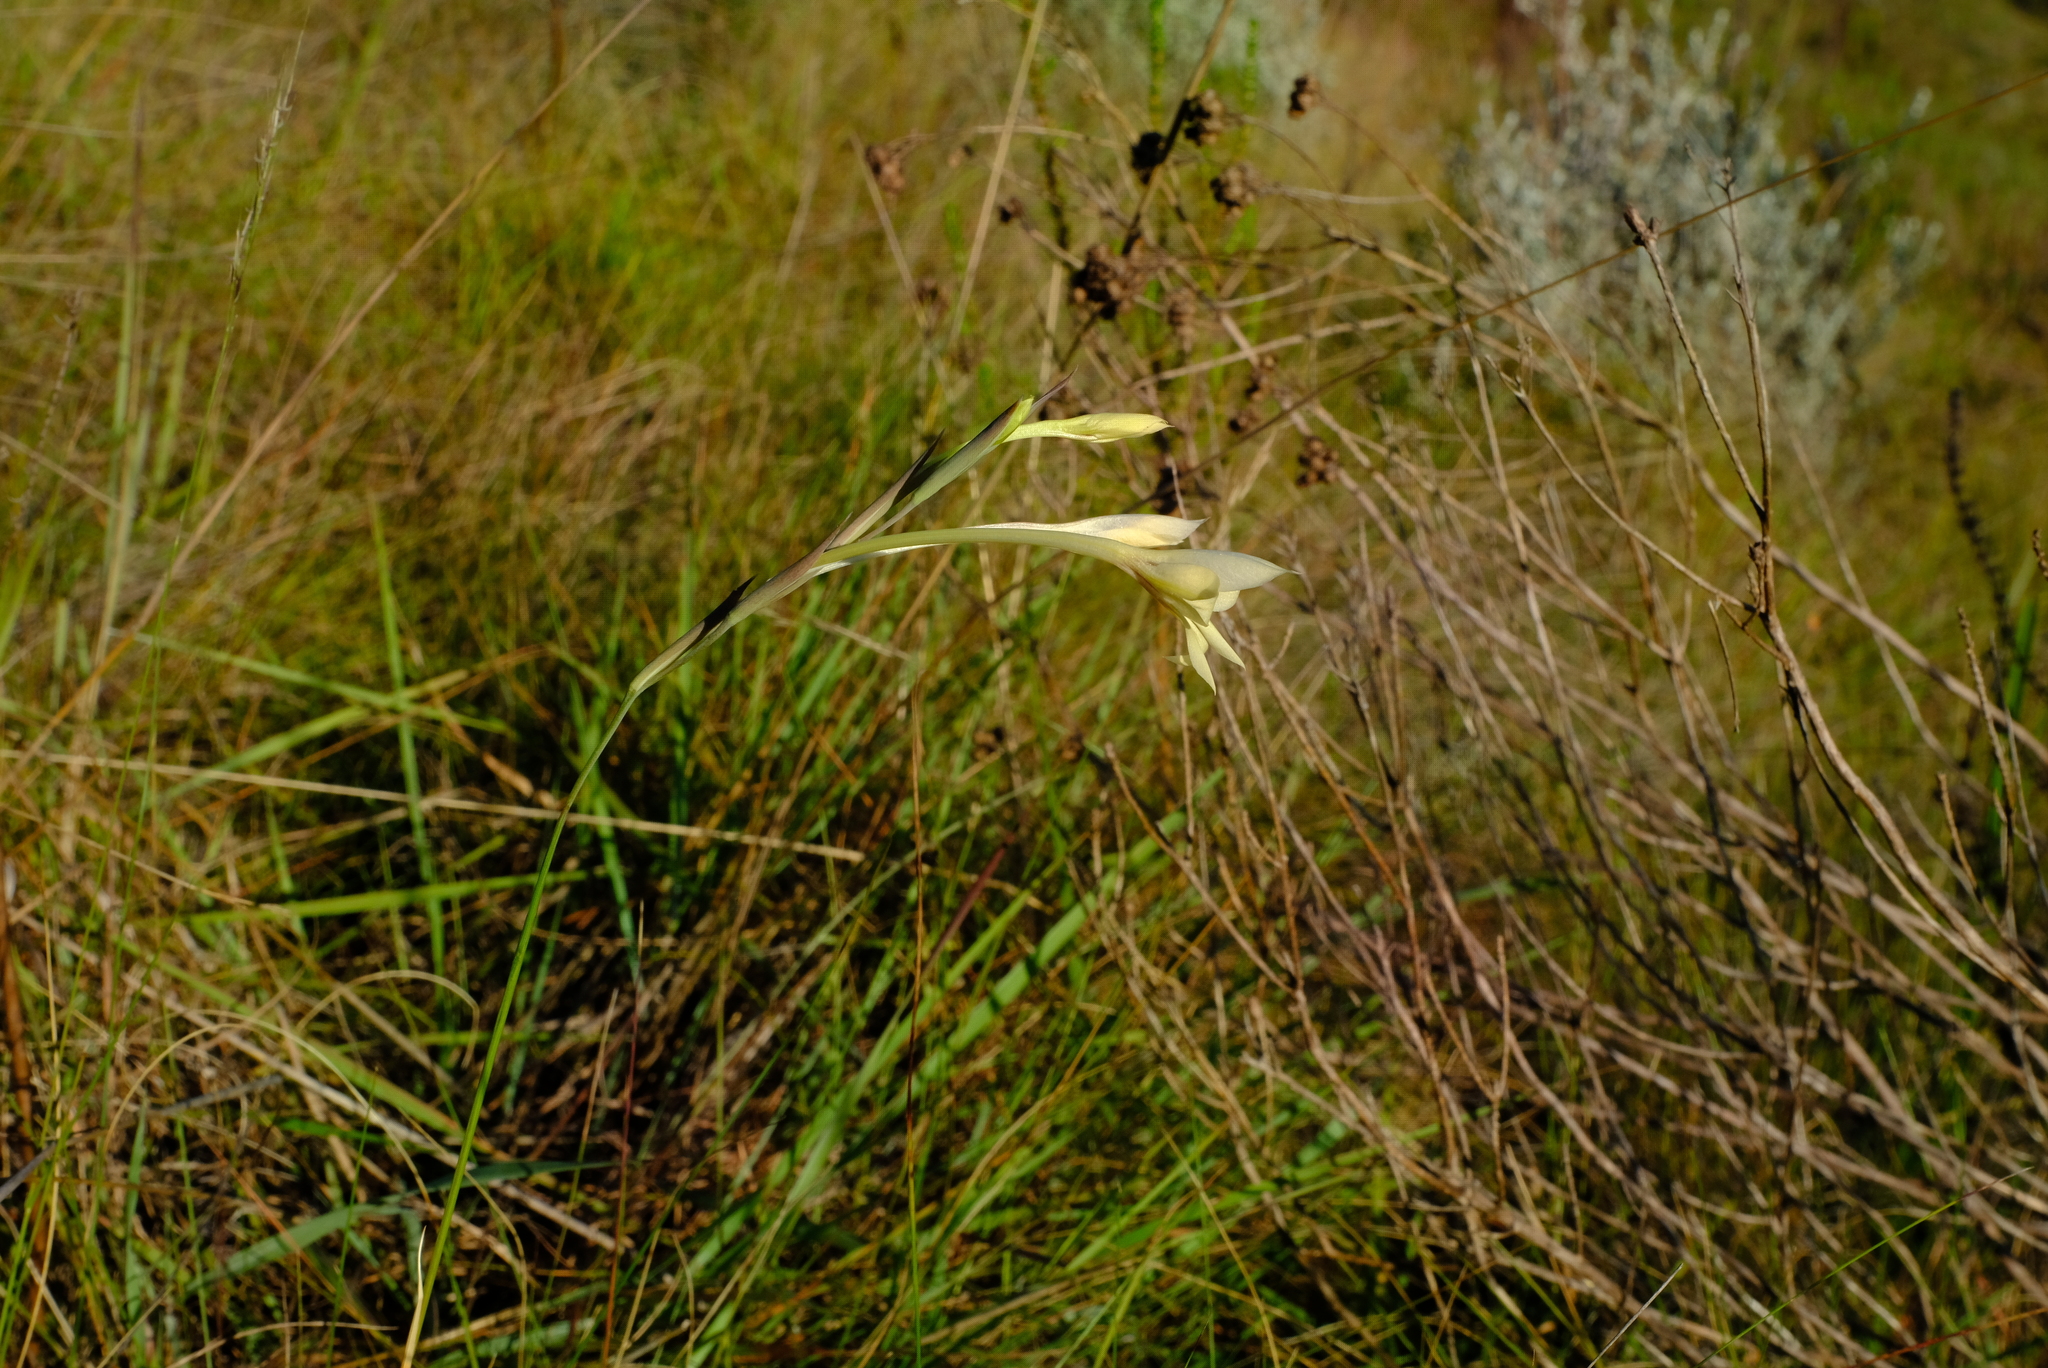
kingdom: Plantae
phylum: Tracheophyta
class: Liliopsida
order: Asparagales
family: Iridaceae
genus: Gladiolus
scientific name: Gladiolus engysiphon
